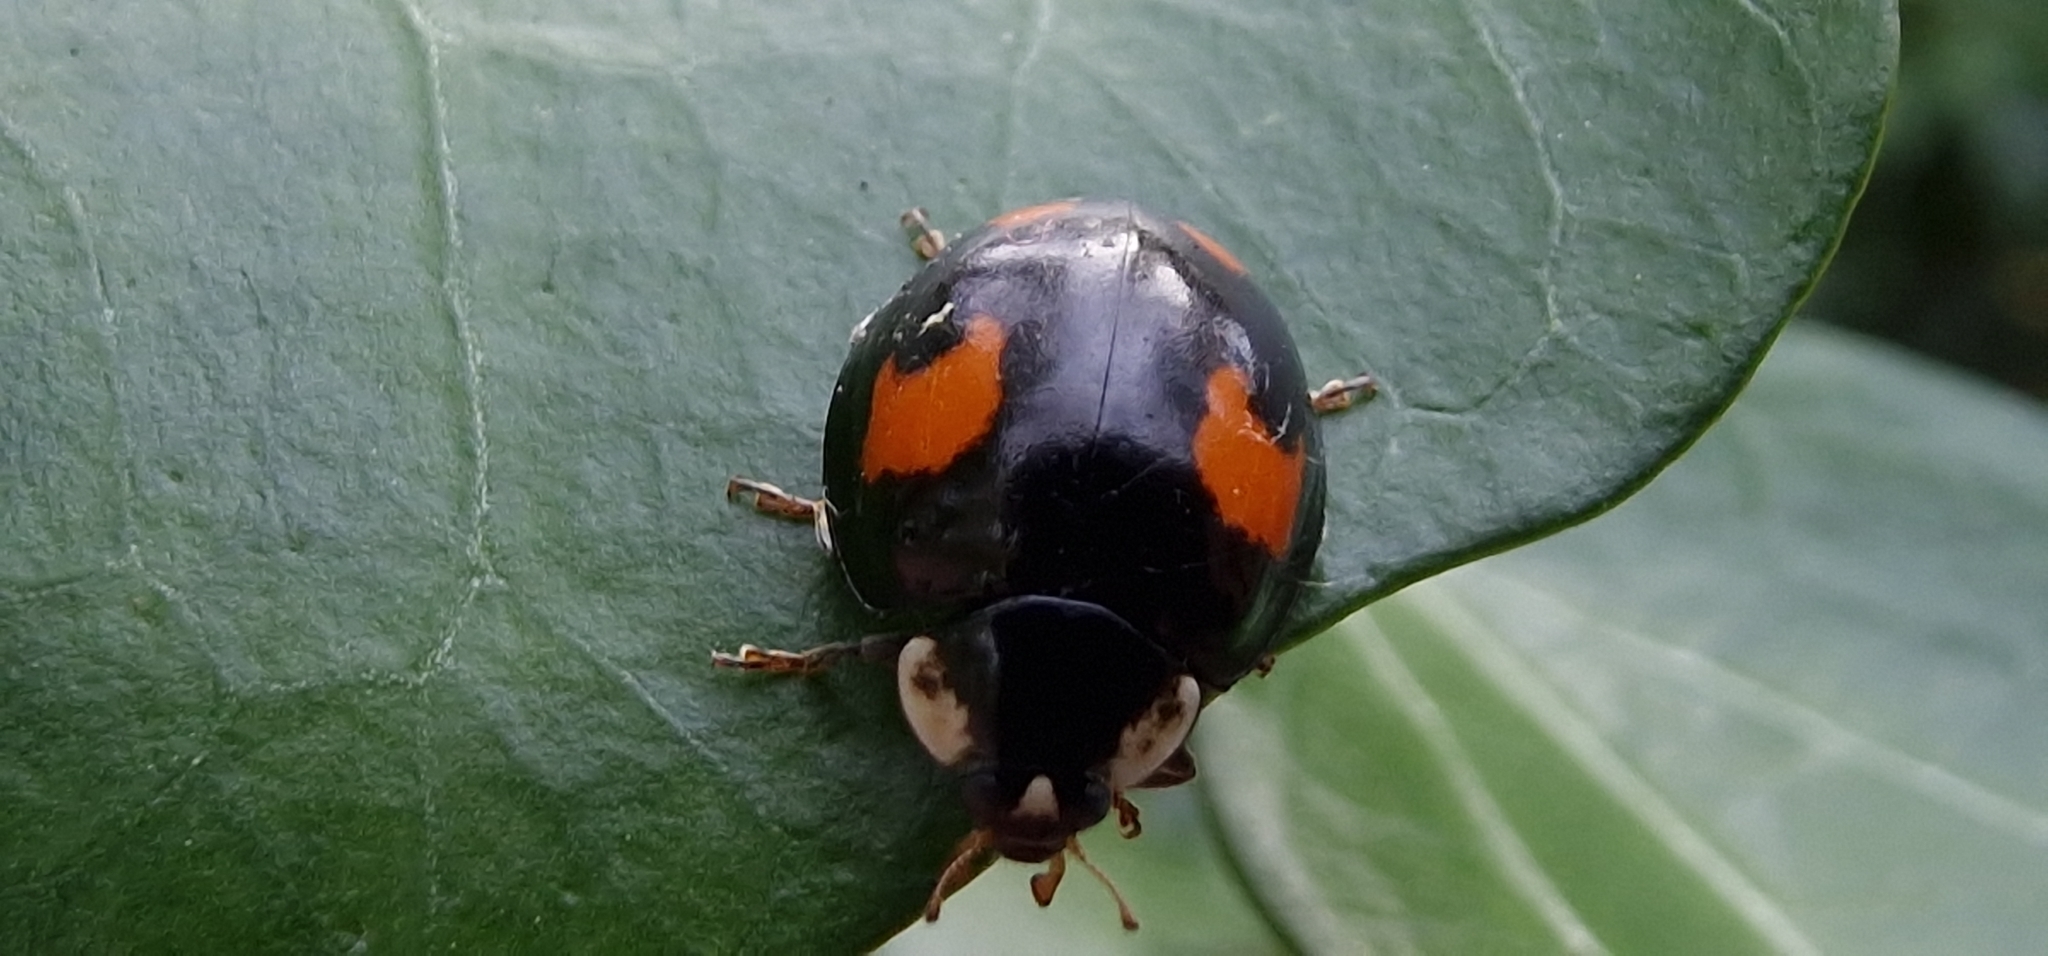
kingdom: Animalia
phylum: Arthropoda
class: Insecta
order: Coleoptera
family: Coccinellidae
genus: Harmonia
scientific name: Harmonia axyridis
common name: Harlequin ladybird
